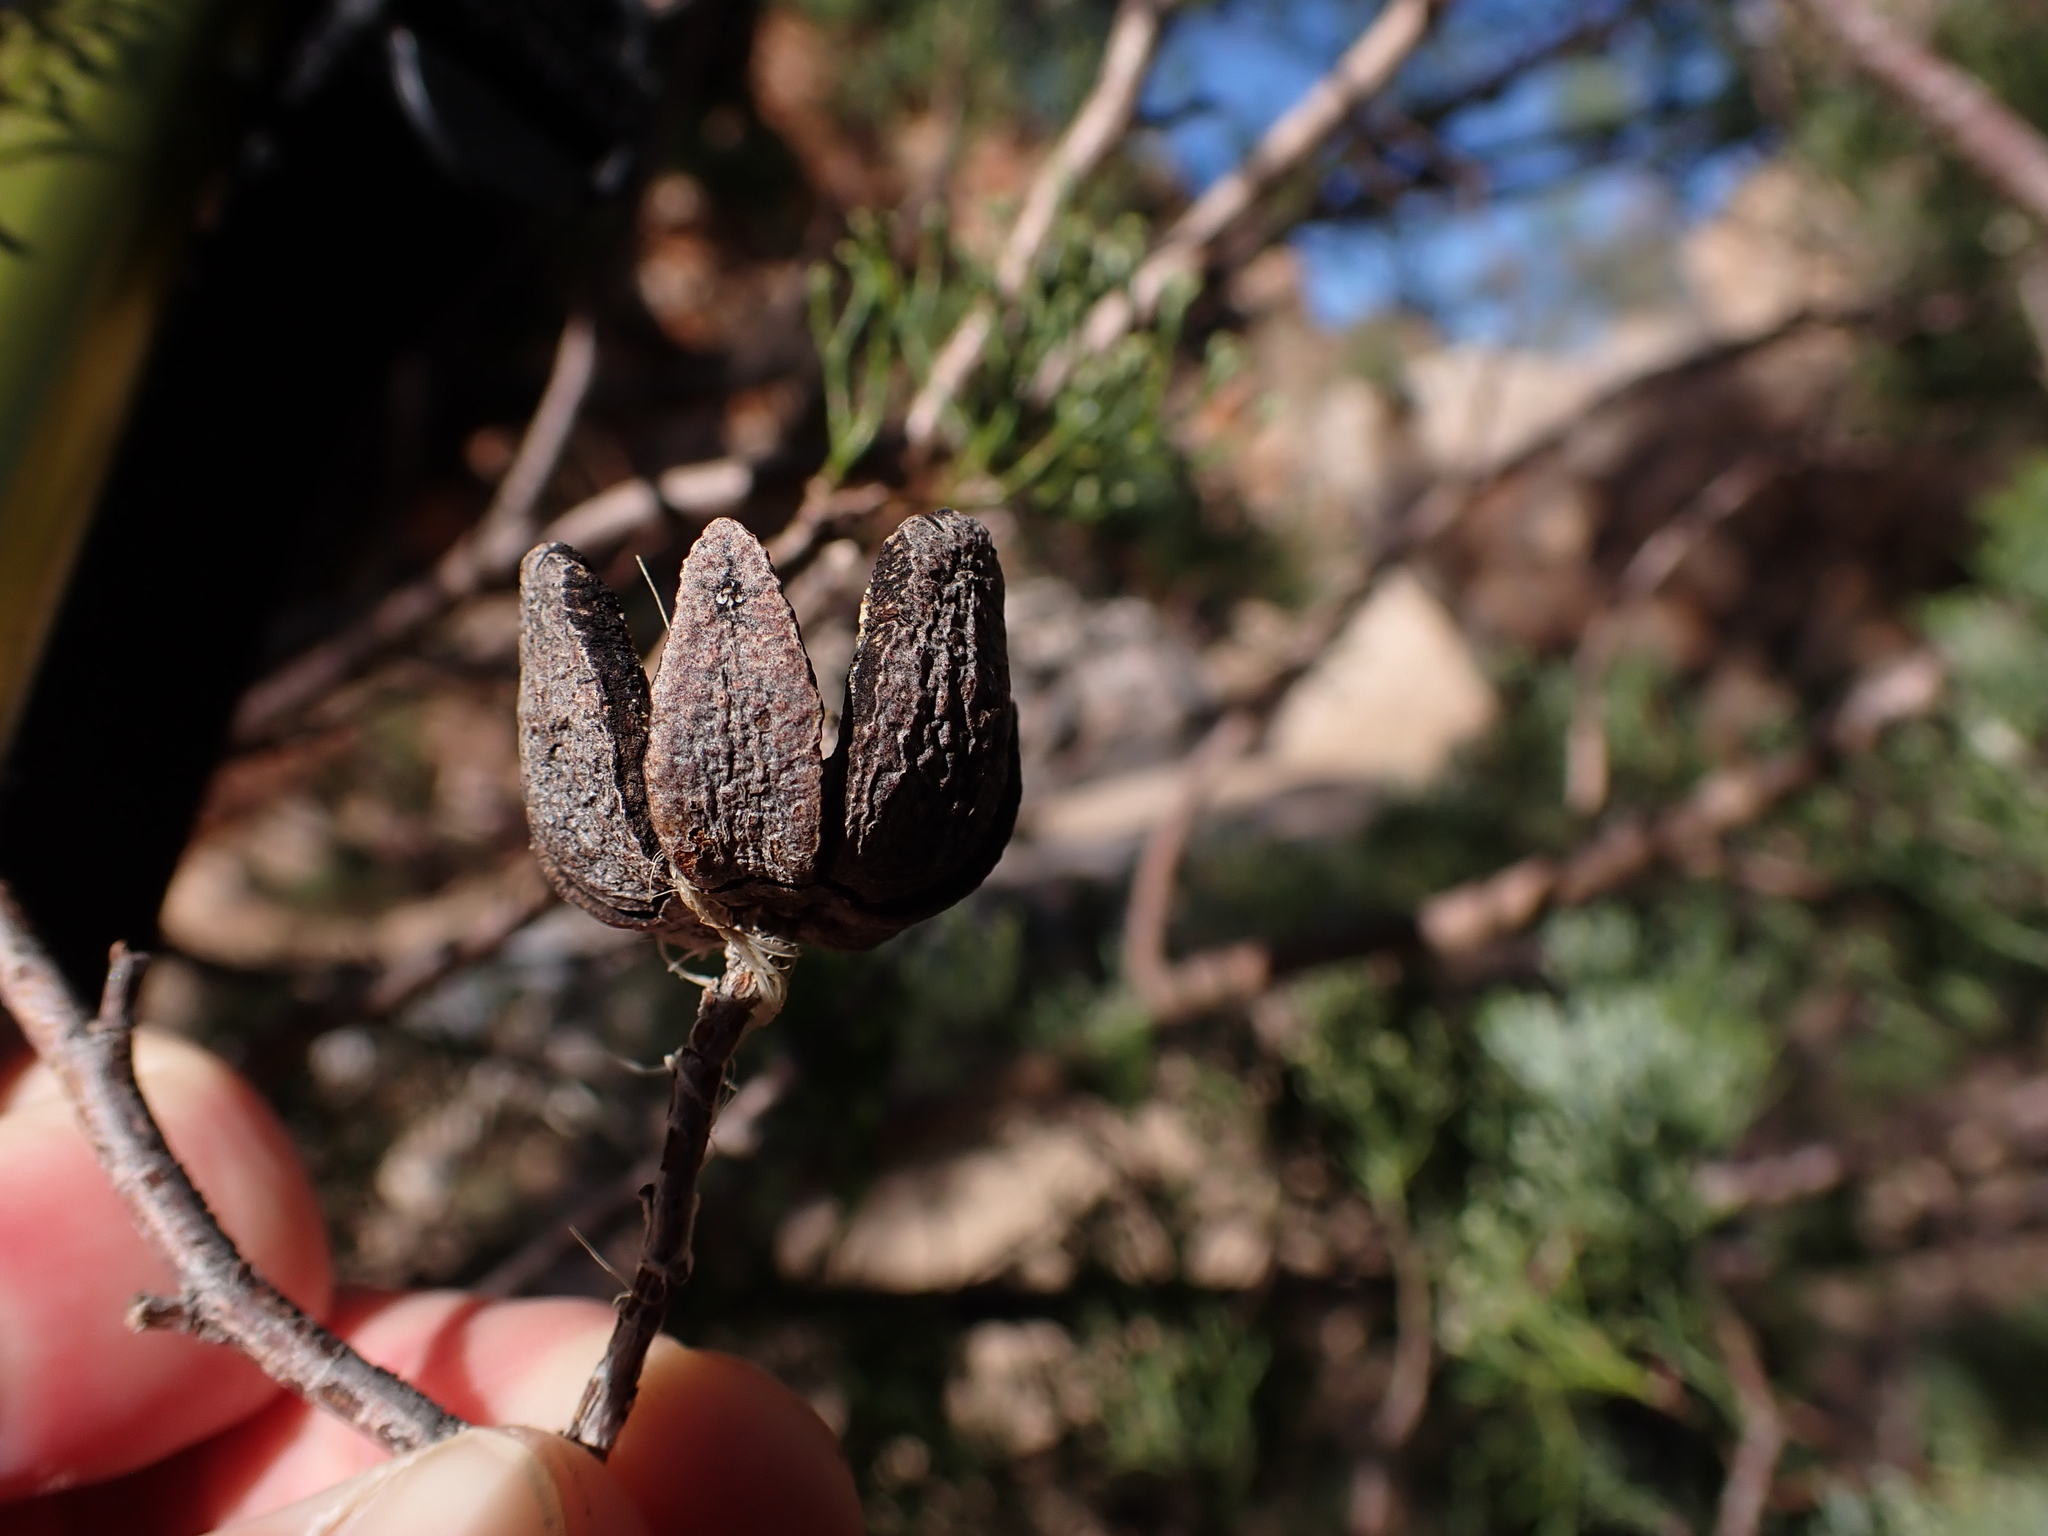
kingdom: Plantae
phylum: Tracheophyta
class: Pinopsida
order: Pinales
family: Cupressaceae
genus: Callitris
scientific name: Callitris columellaris
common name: White cypress-pine
